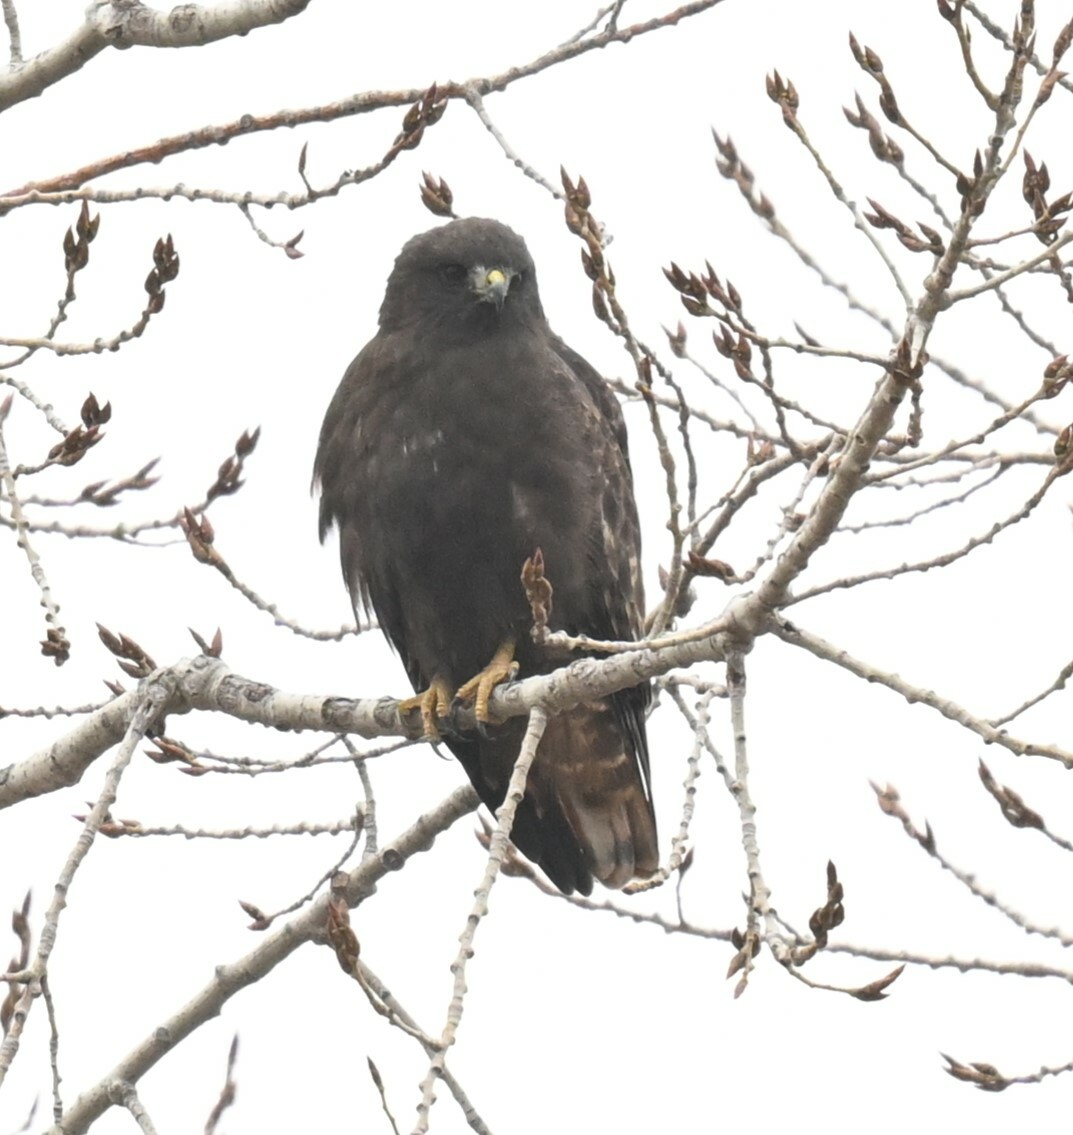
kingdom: Animalia
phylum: Chordata
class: Aves
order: Accipitriformes
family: Accipitridae
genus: Buteo
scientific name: Buteo jamaicensis
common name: Red-tailed hawk
